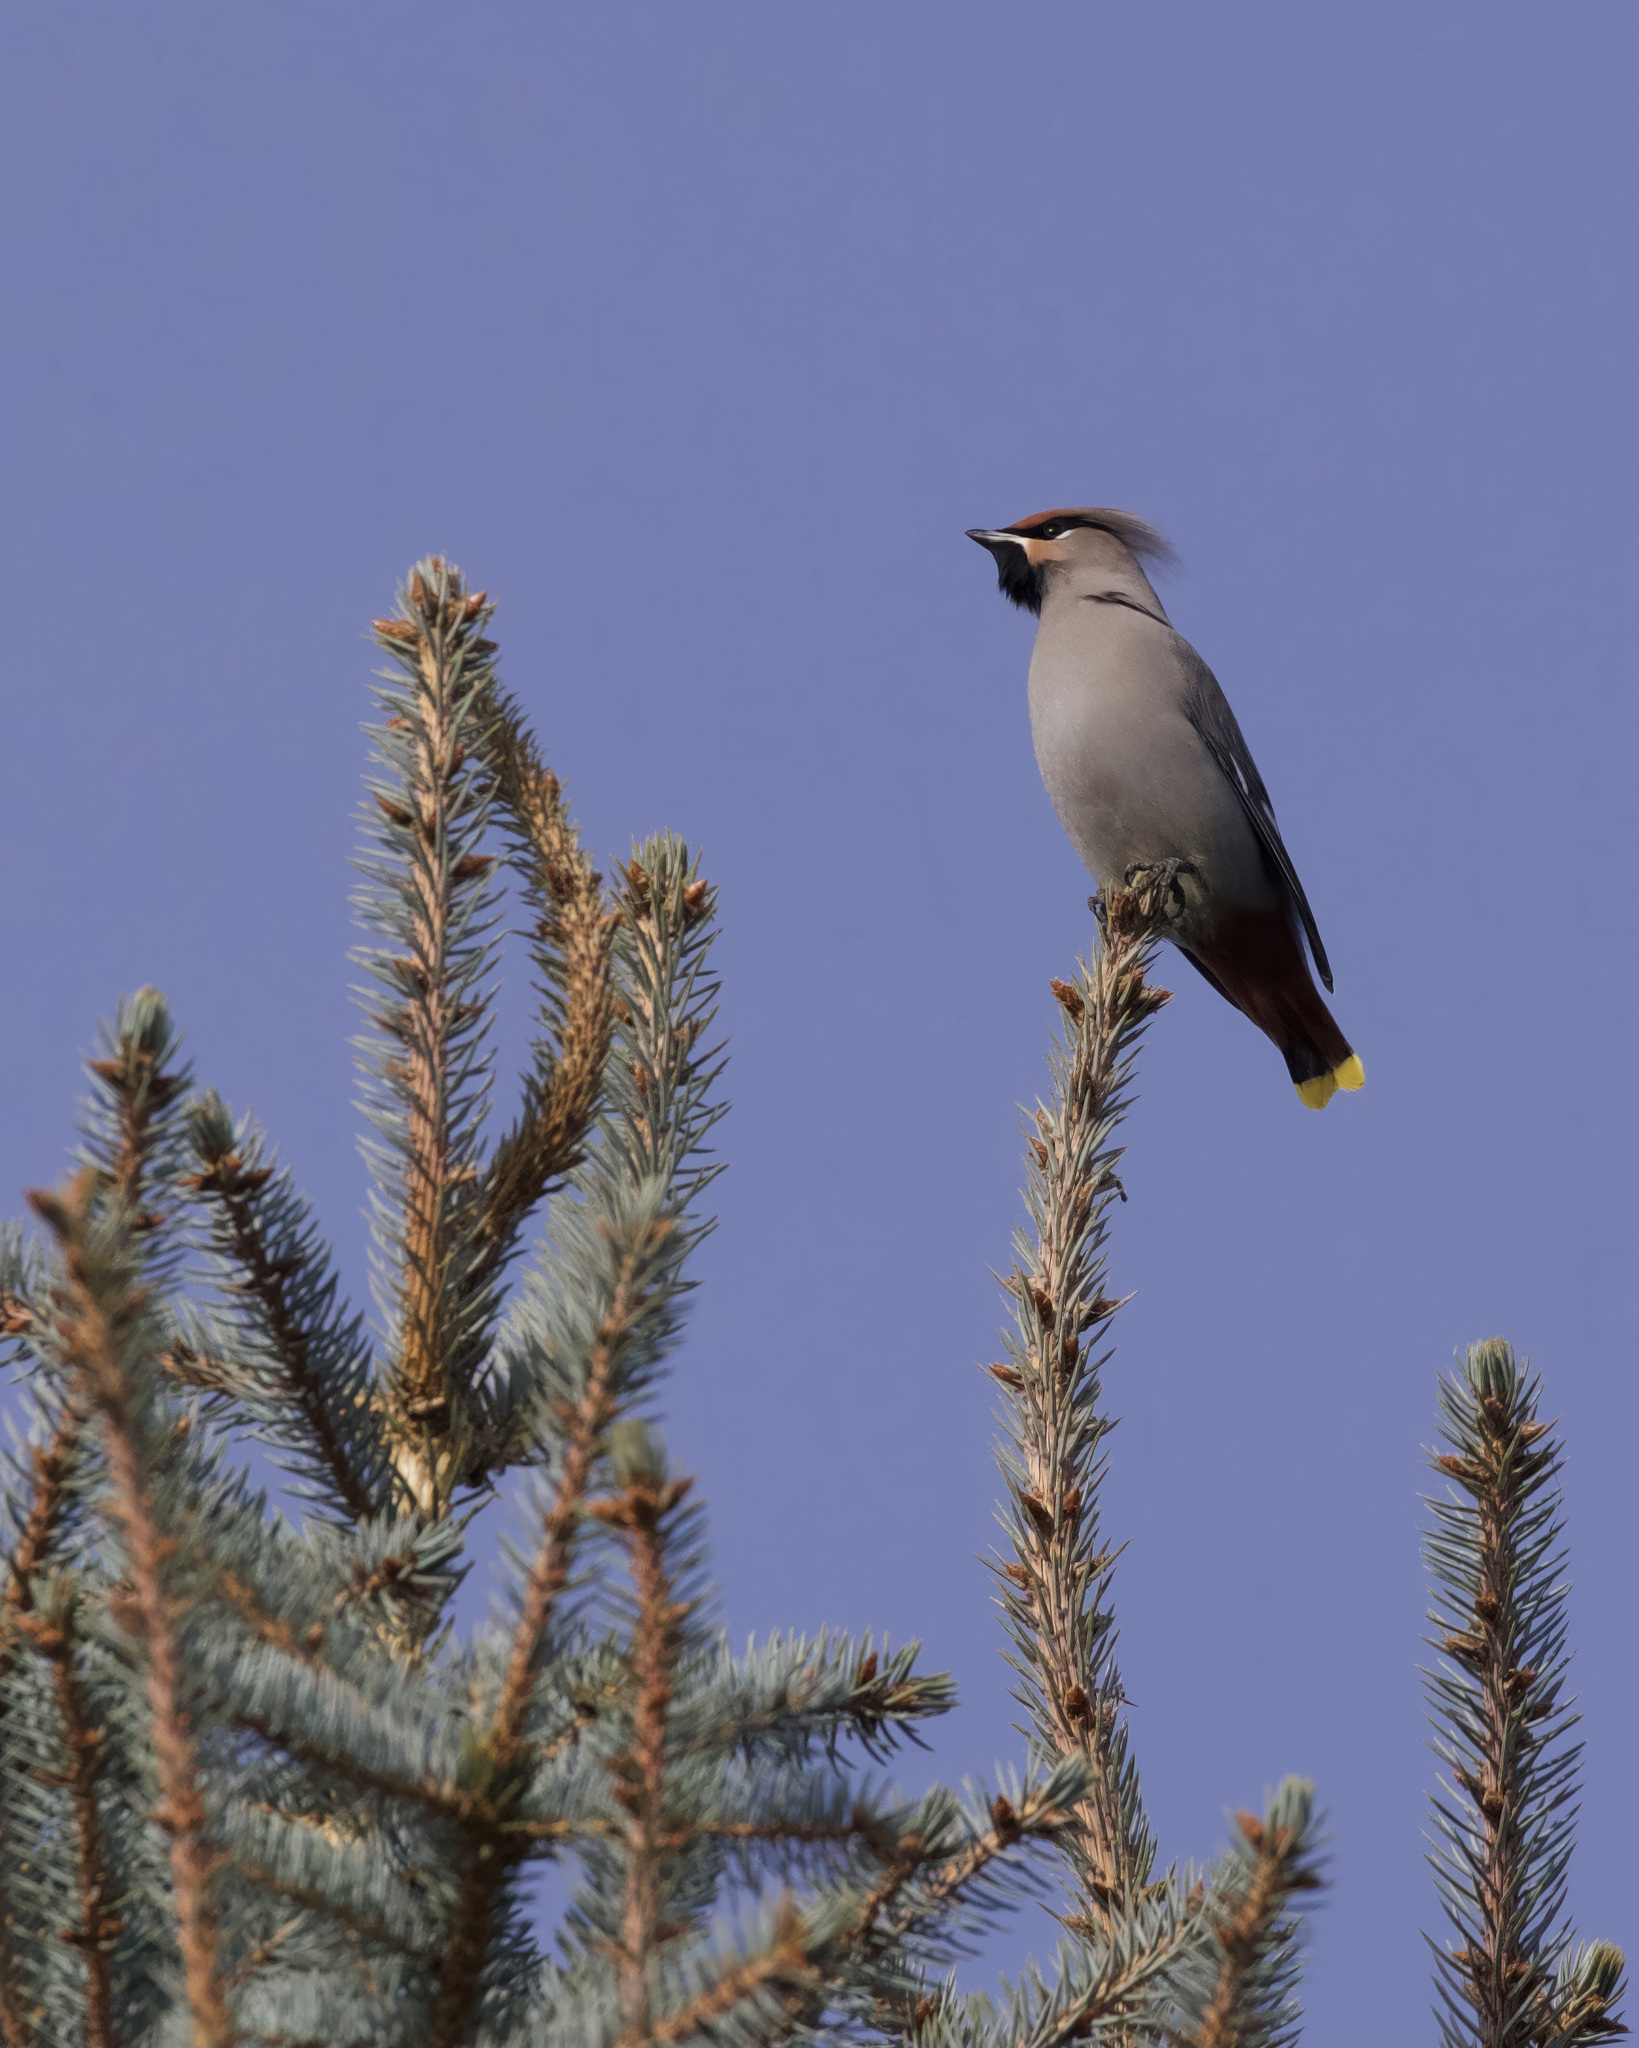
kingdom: Animalia
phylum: Chordata
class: Aves
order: Passeriformes
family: Bombycillidae
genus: Bombycilla
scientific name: Bombycilla garrulus
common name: Bohemian waxwing
